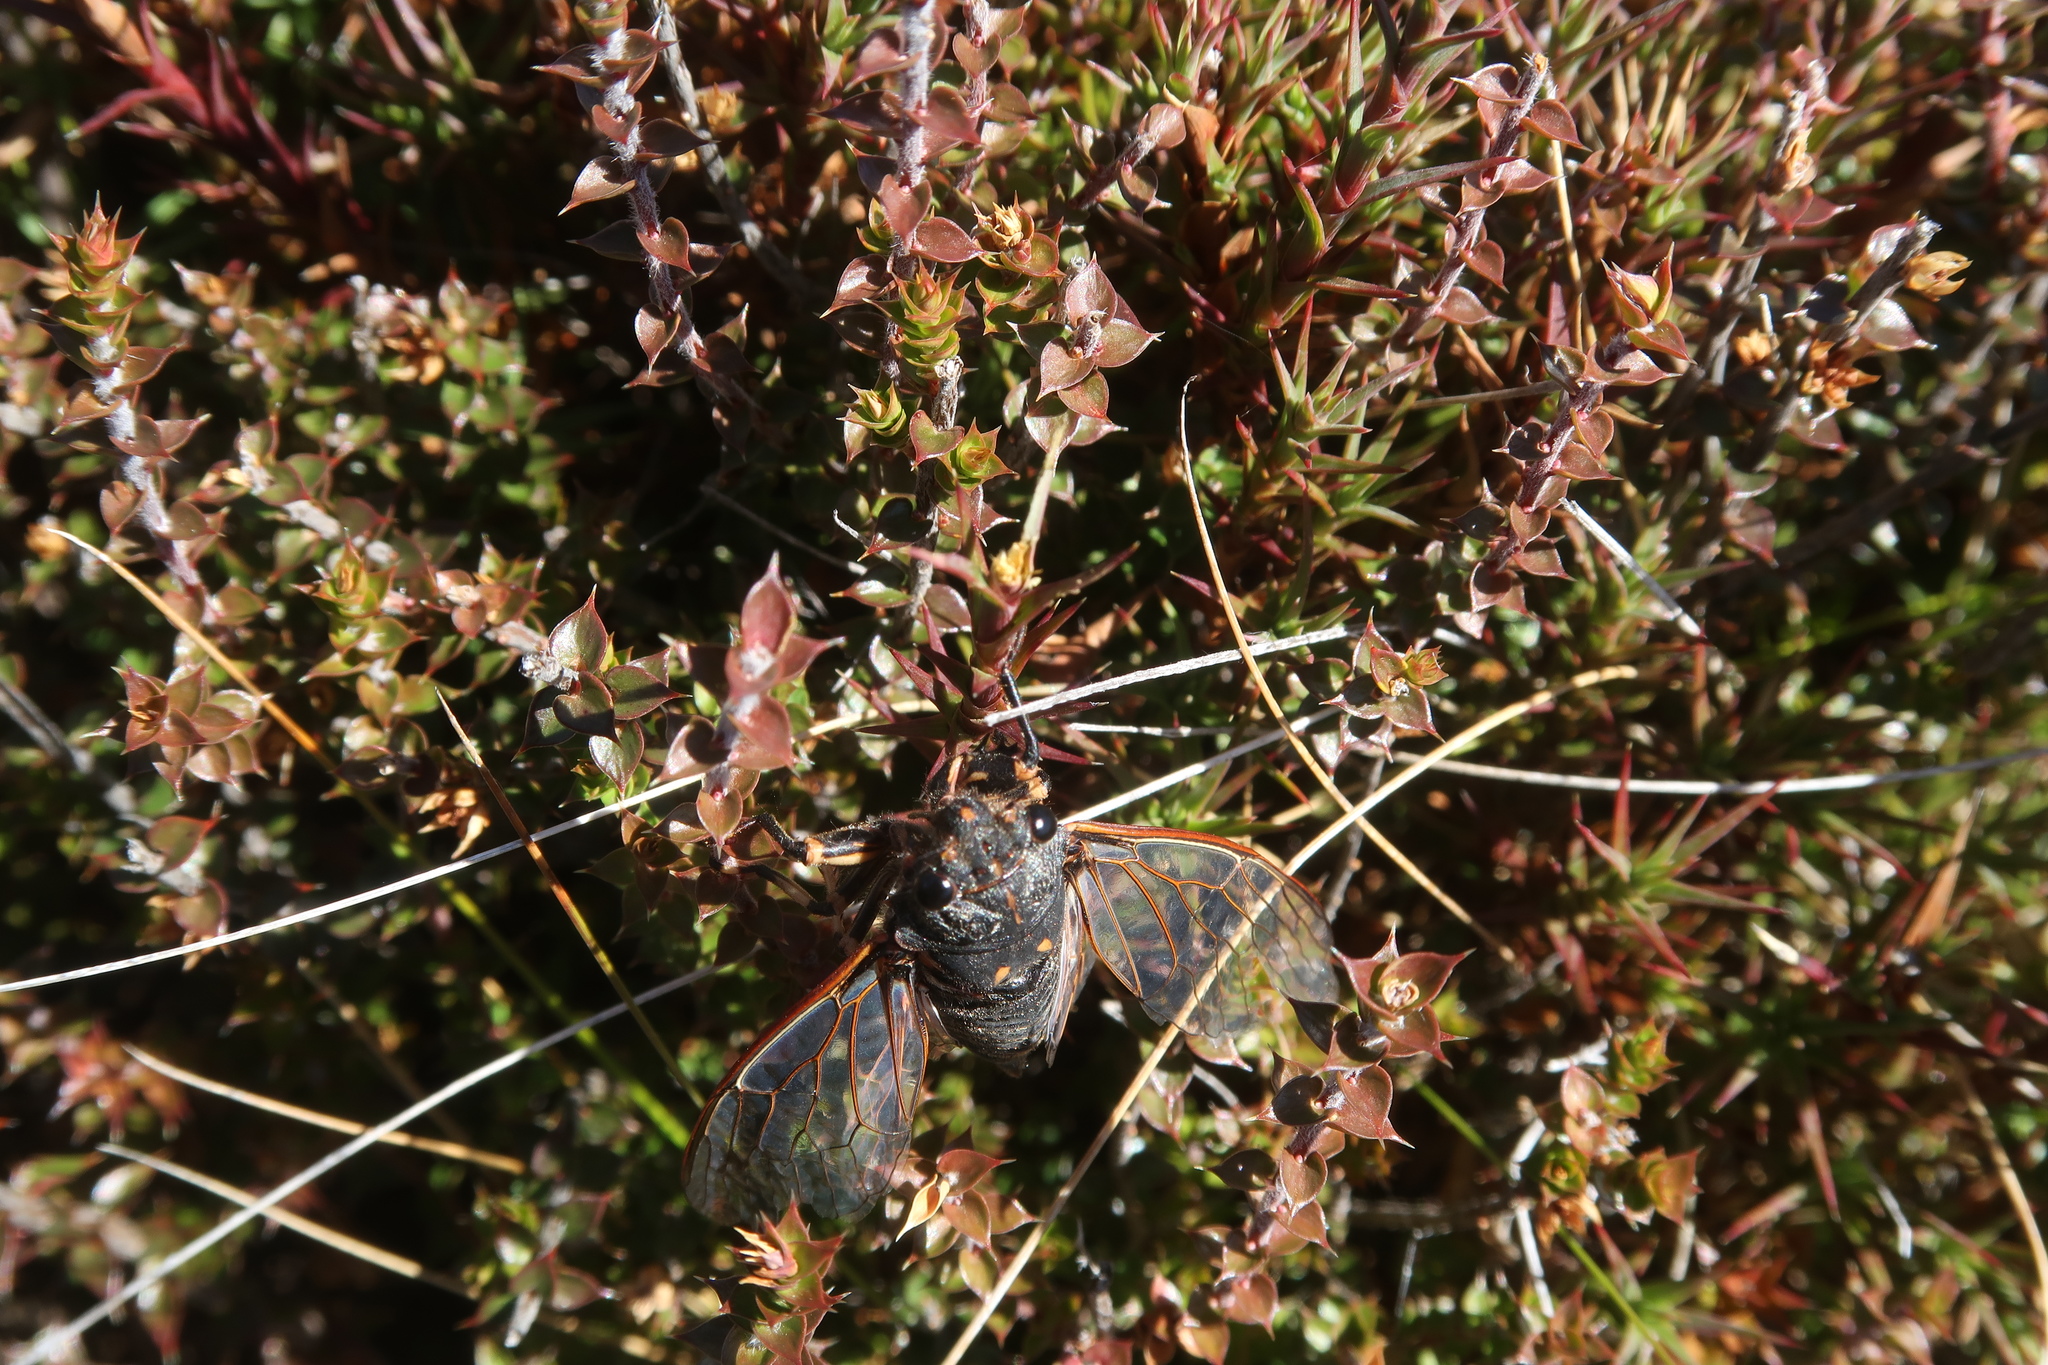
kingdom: Animalia
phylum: Arthropoda
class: Insecta
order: Hemiptera
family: Cicadidae
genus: Diemeniana
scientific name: Diemeniana hirsuta
